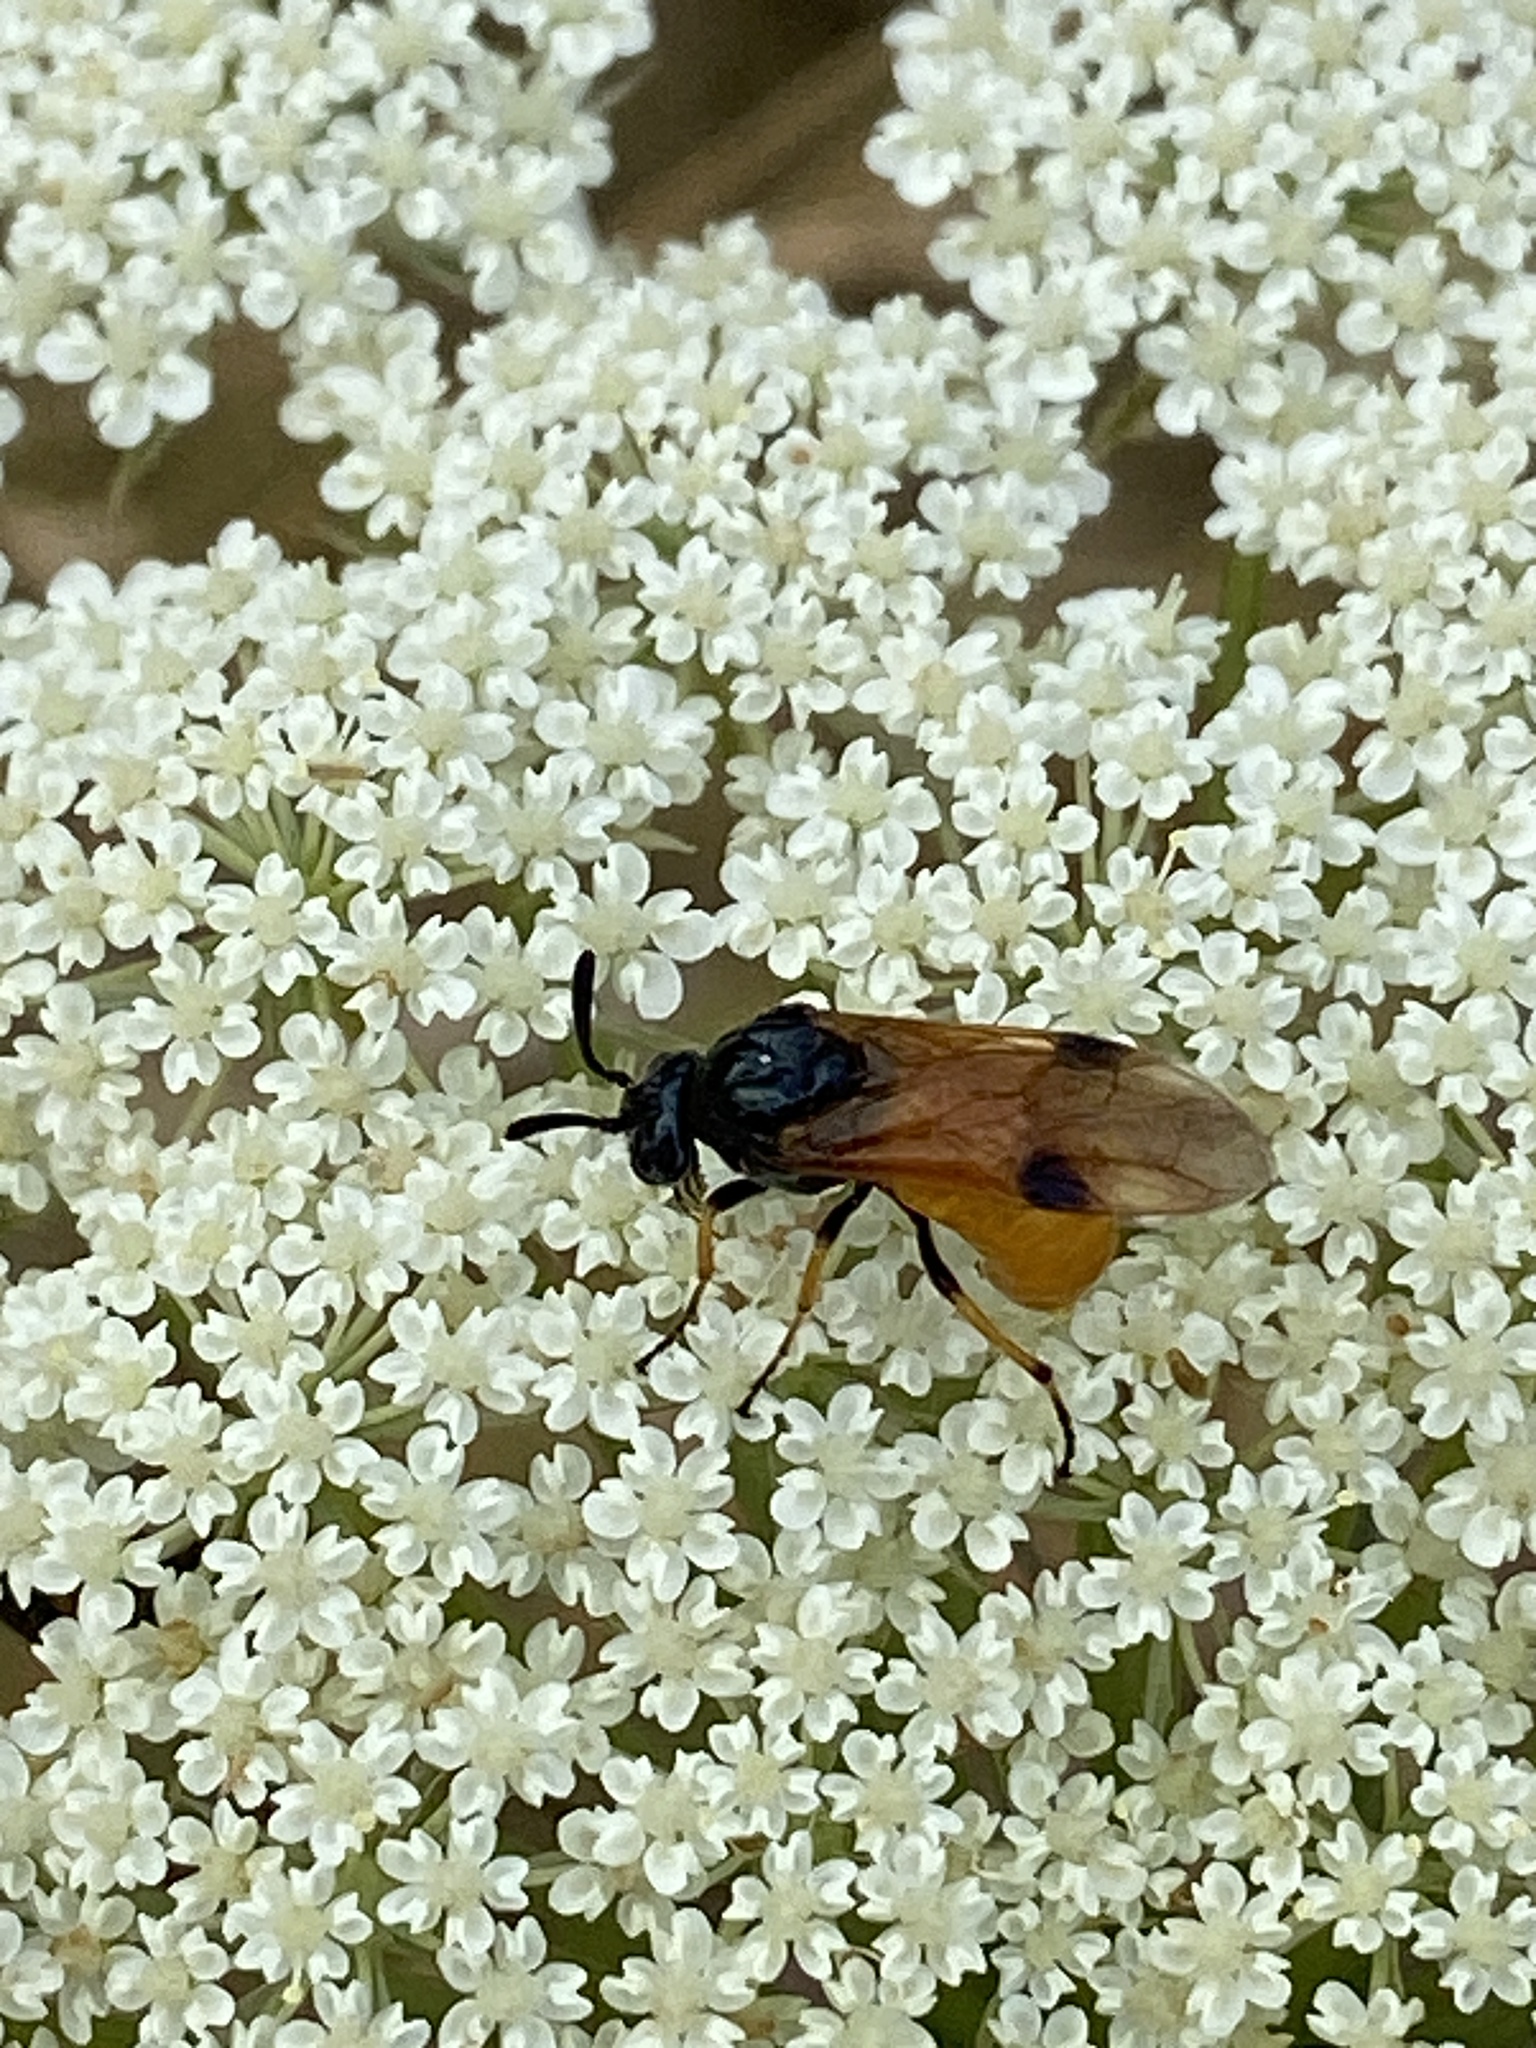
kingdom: Animalia
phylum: Arthropoda
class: Insecta
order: Hymenoptera
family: Argidae
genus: Arge
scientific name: Arge melanochra
